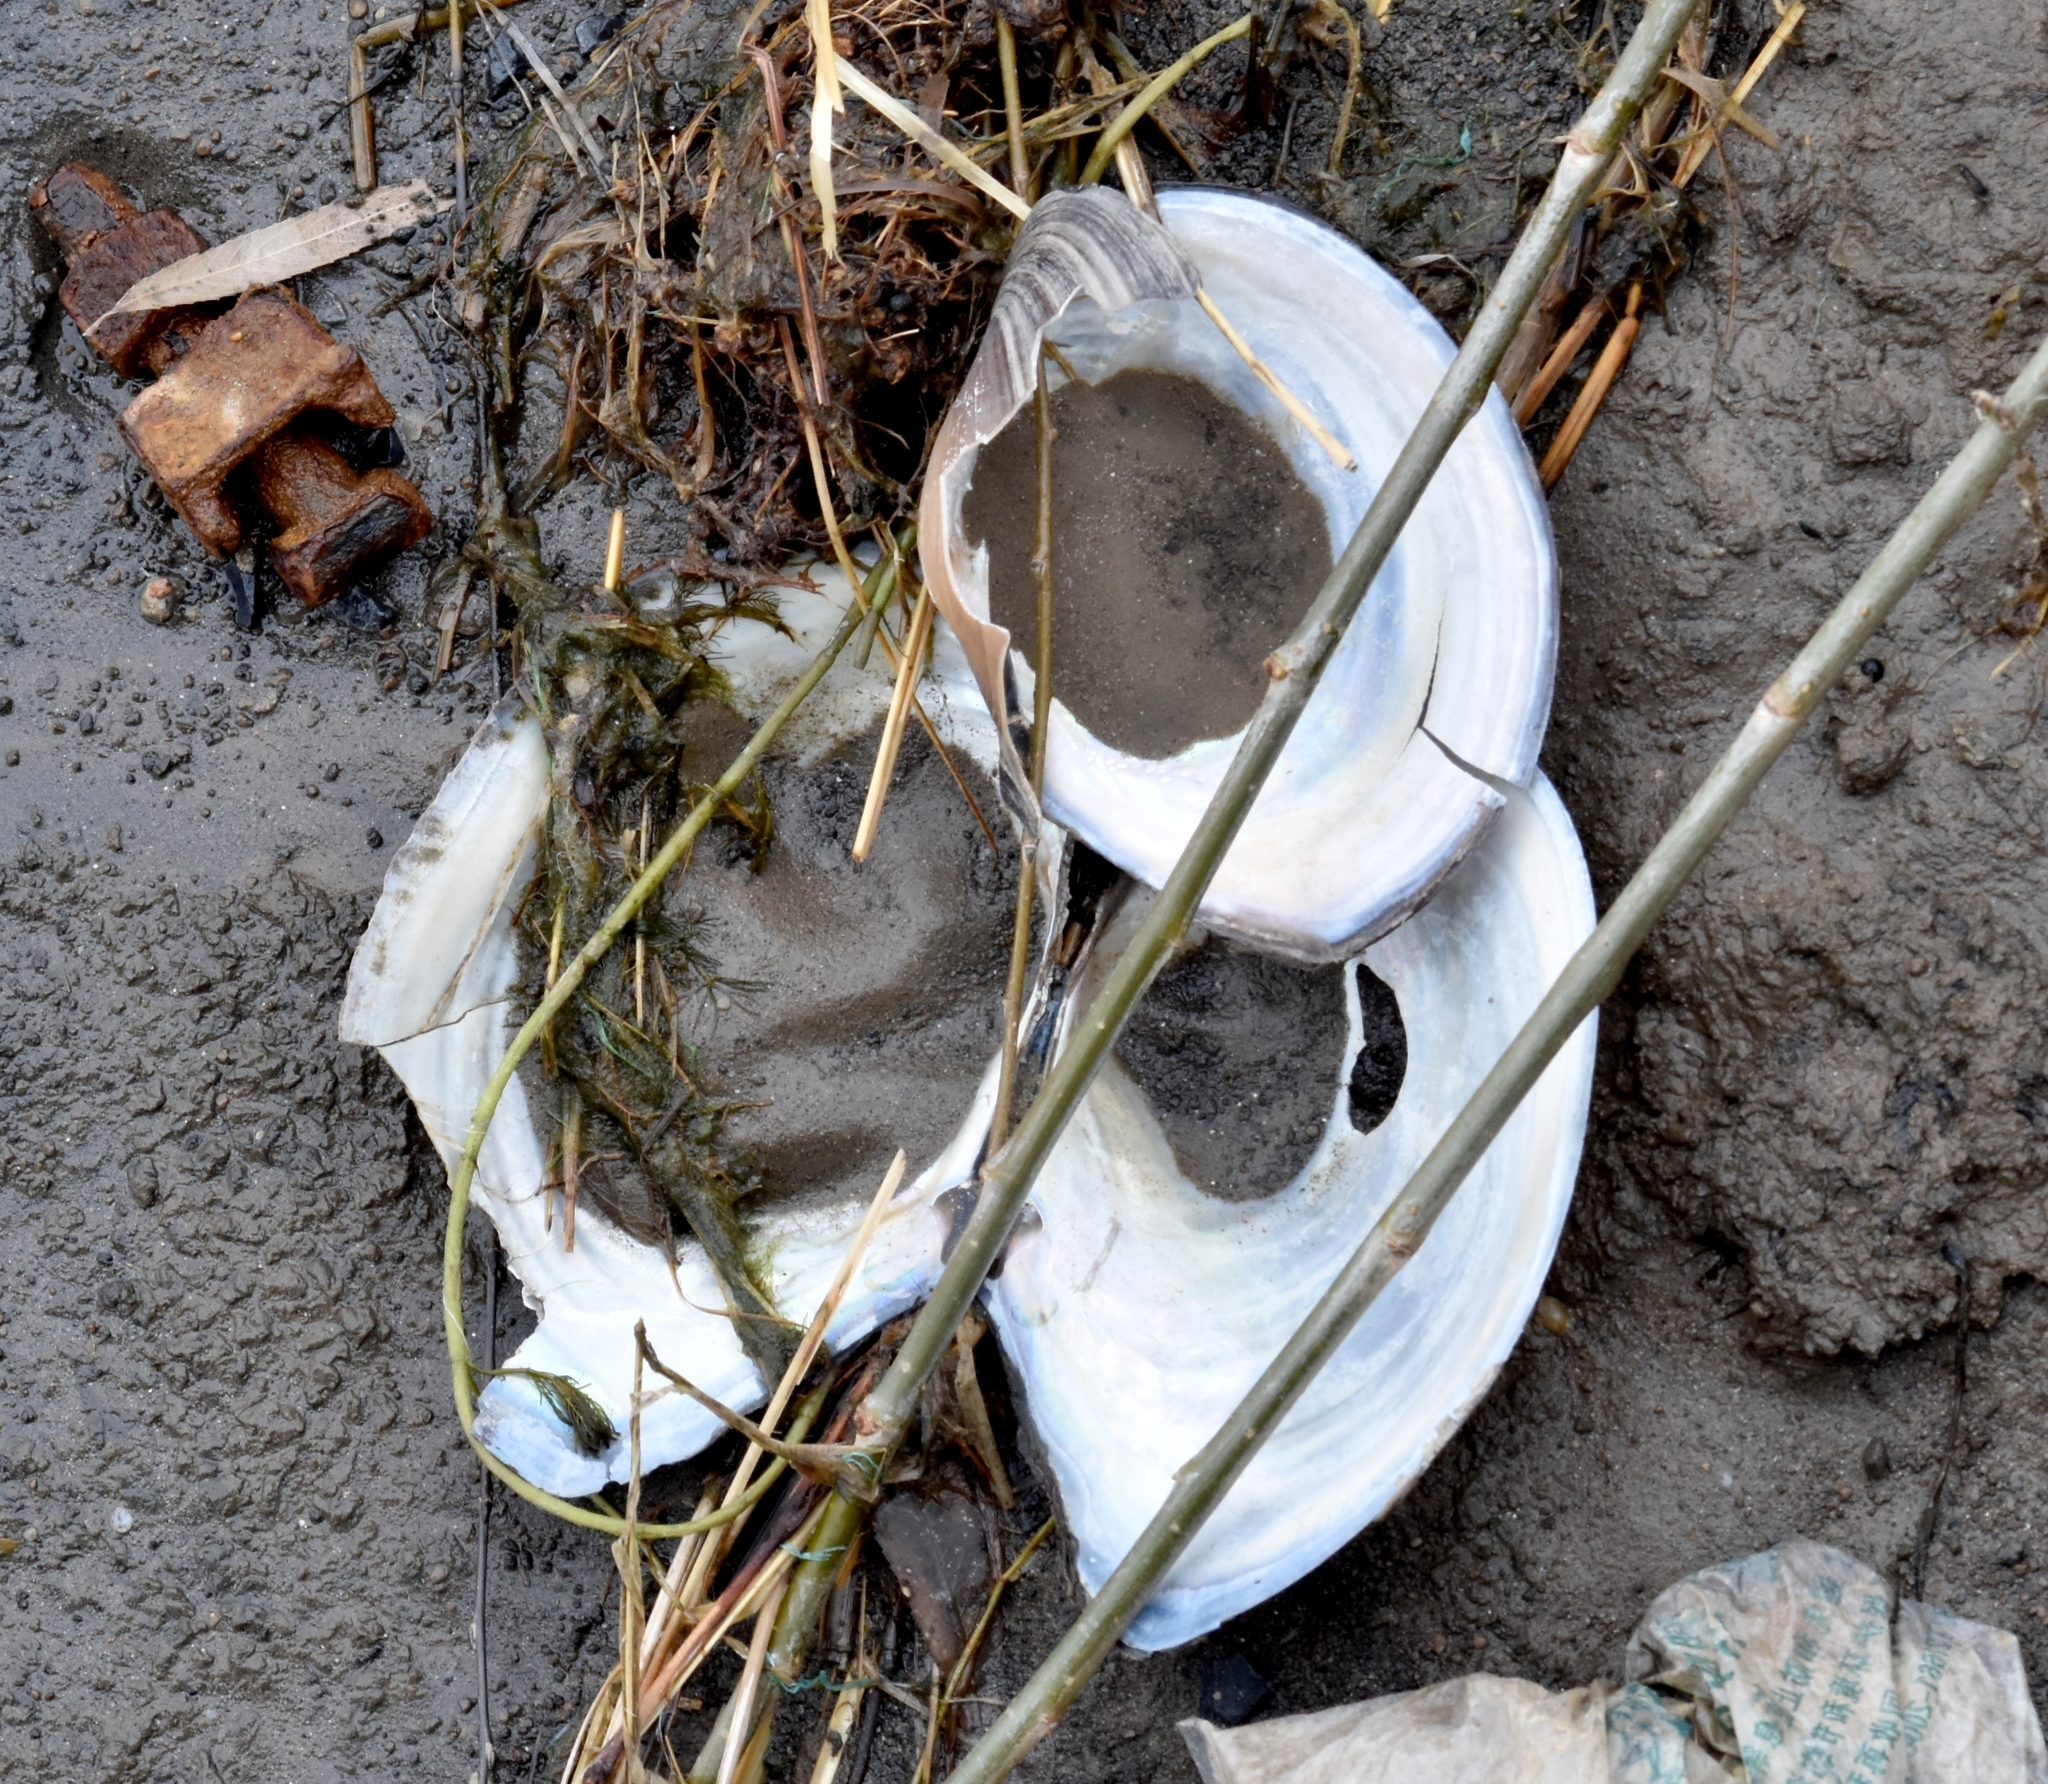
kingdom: Animalia
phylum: Mollusca
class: Bivalvia
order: Unionida
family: Unionidae
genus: Sinanodonta
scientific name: Sinanodonta woodiana
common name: Chinese pond mussel
